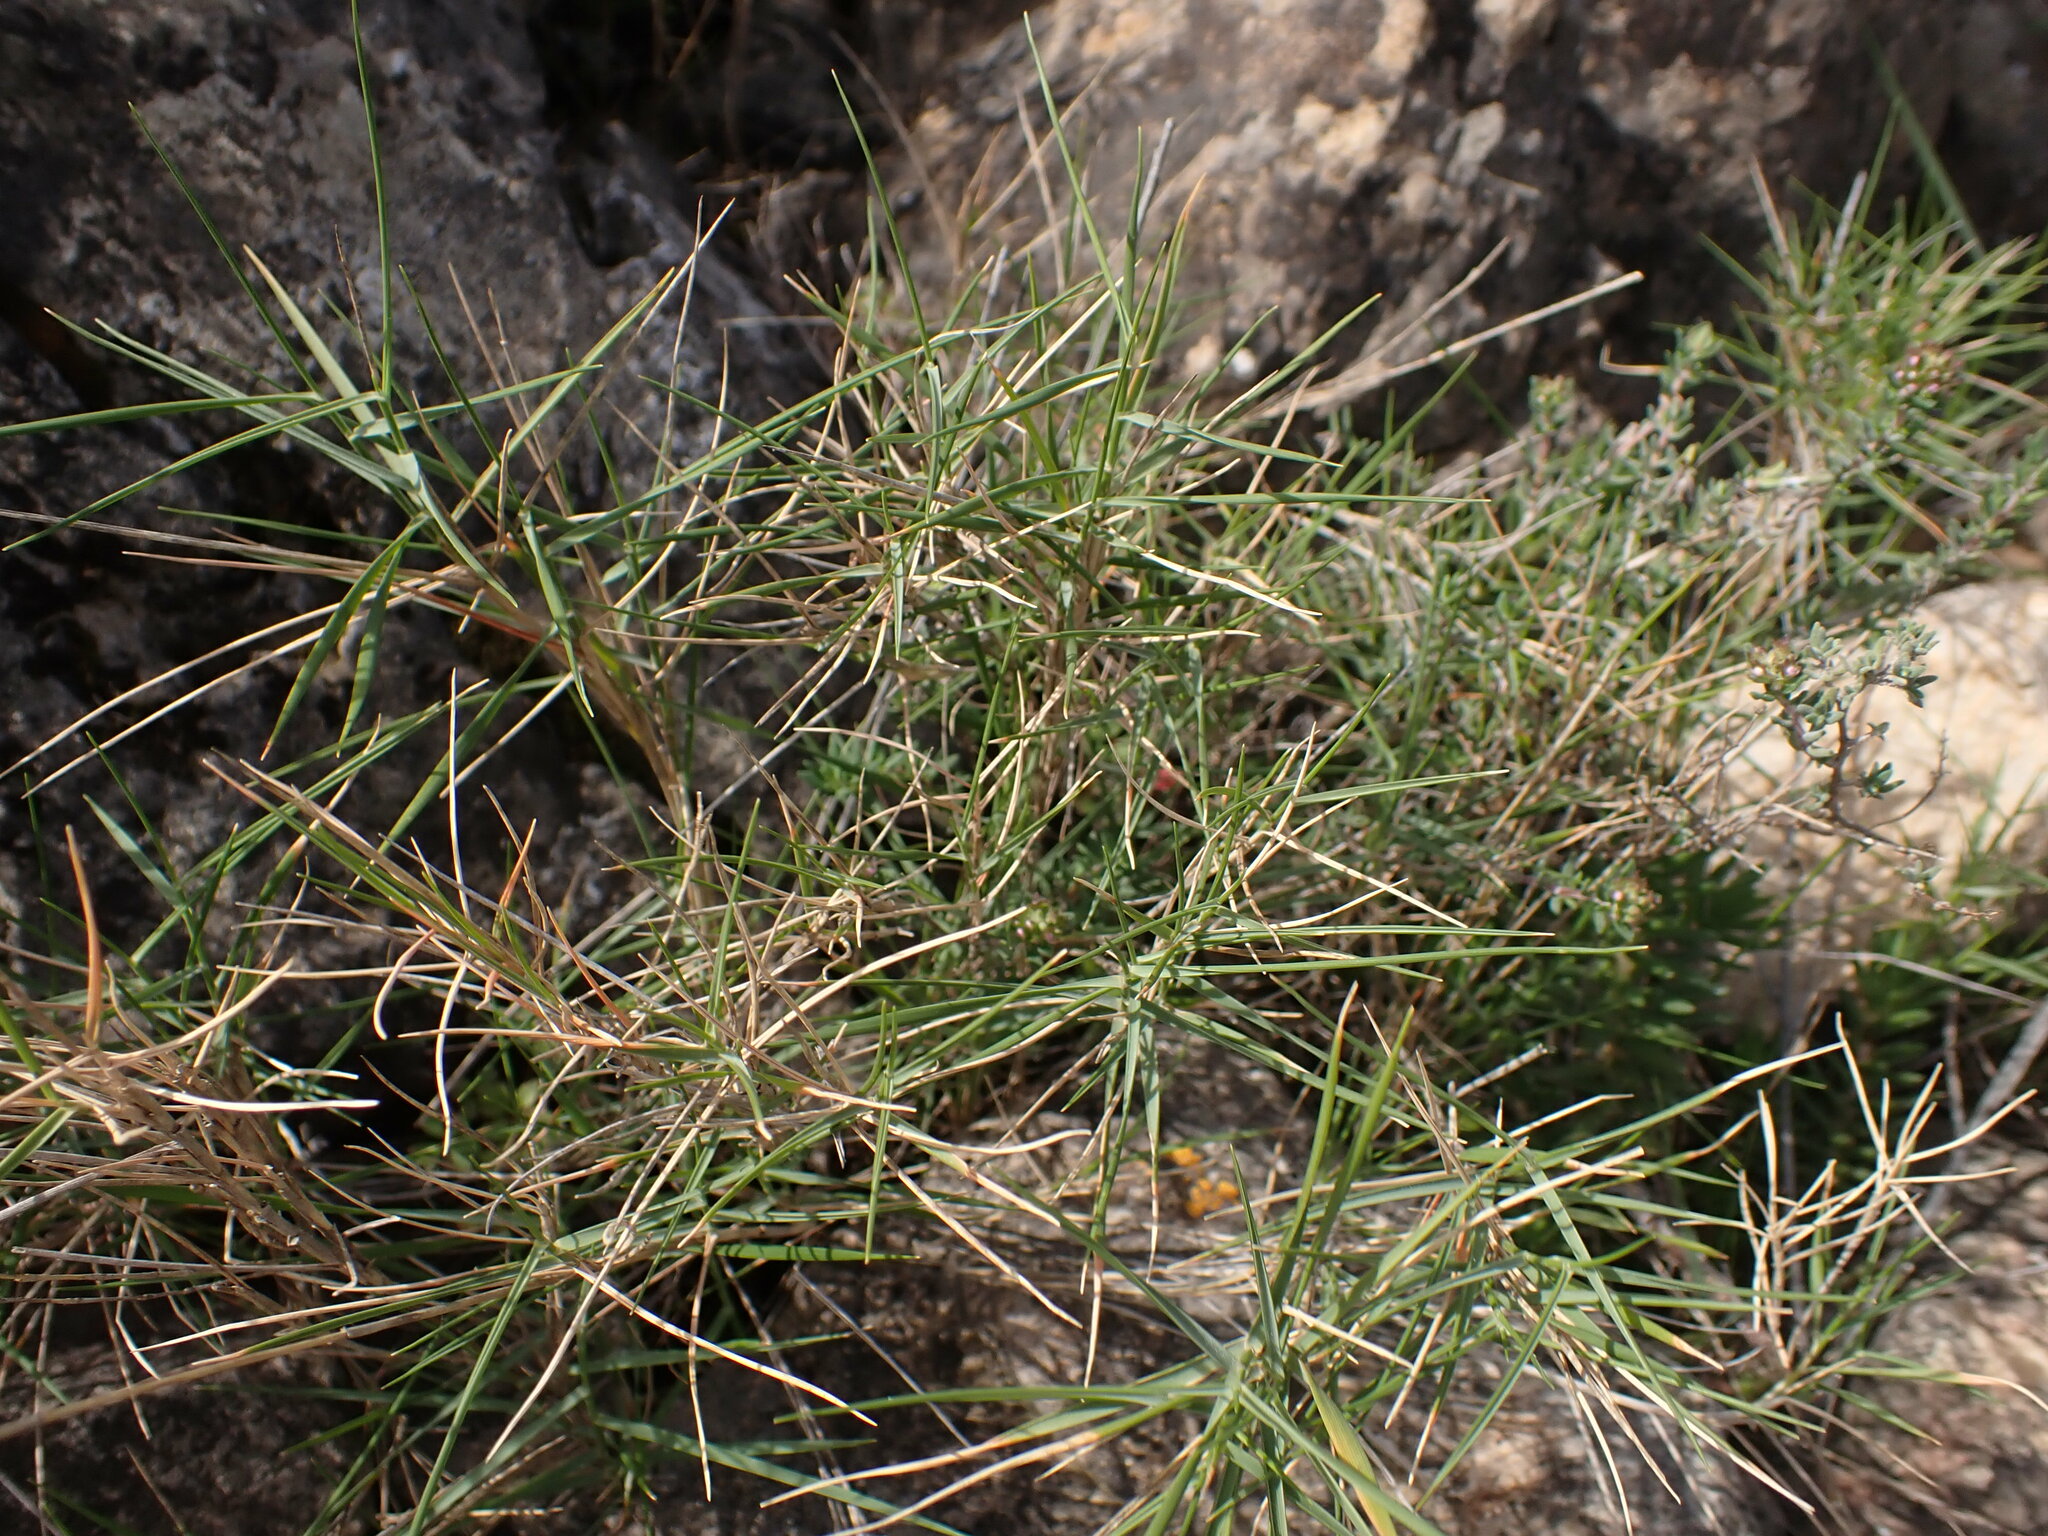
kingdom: Plantae
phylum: Tracheophyta
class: Liliopsida
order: Poales
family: Poaceae
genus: Brachypodium
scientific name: Brachypodium retusum
